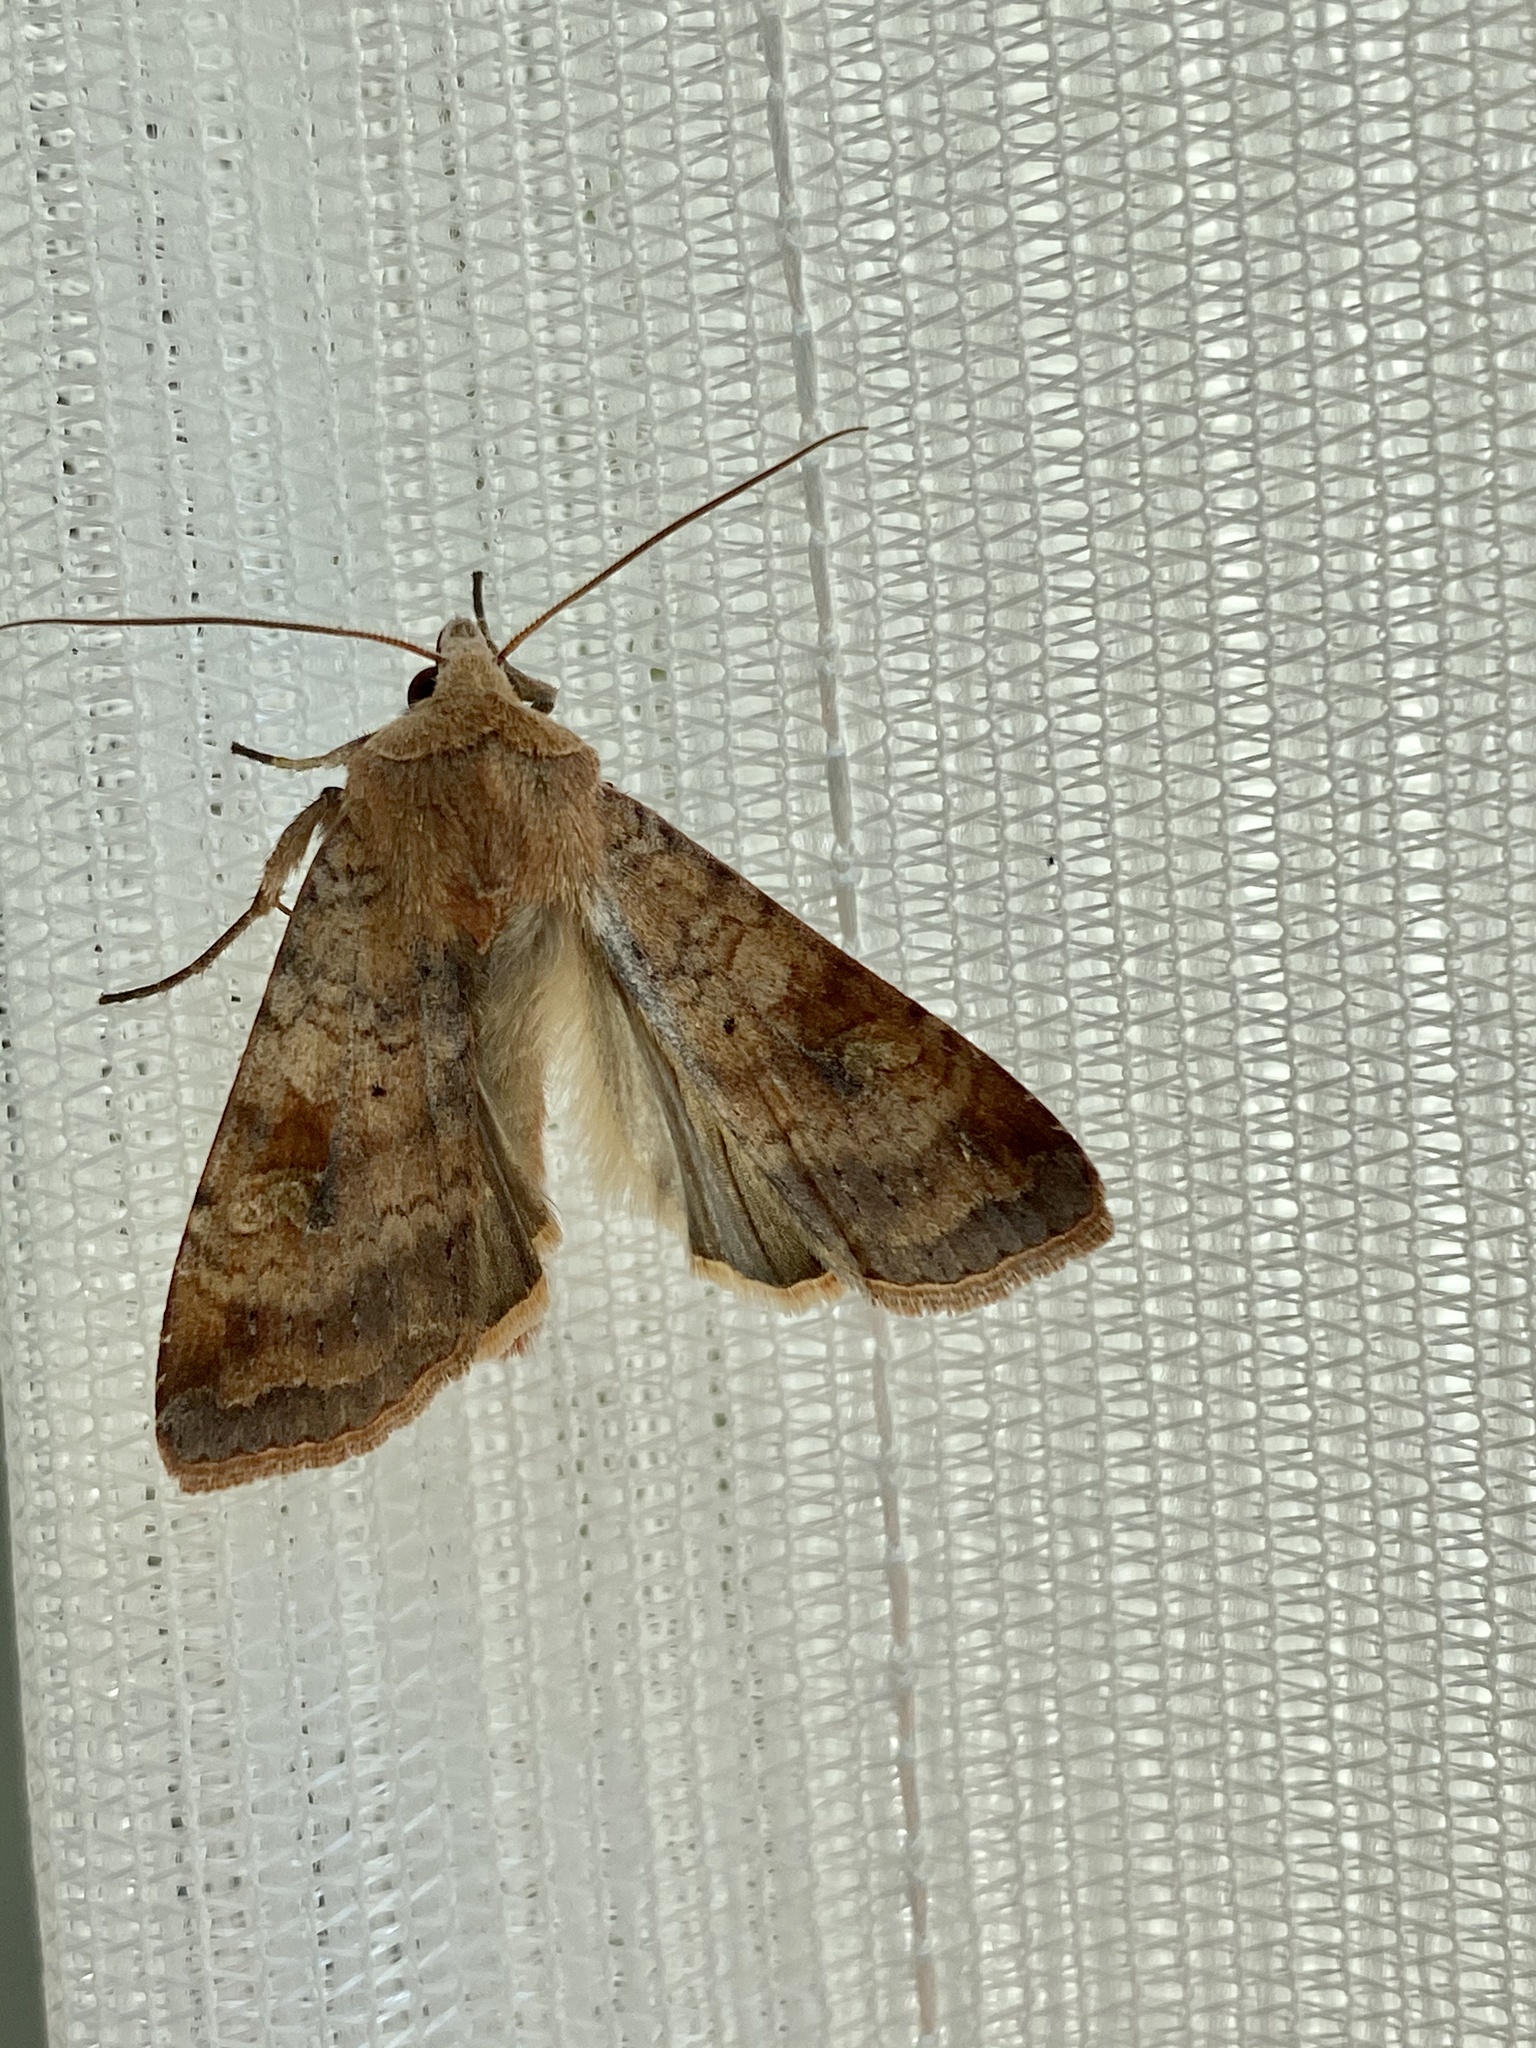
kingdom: Animalia
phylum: Arthropoda
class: Insecta
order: Lepidoptera
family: Noctuidae
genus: Diarsia
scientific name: Diarsia canescens
